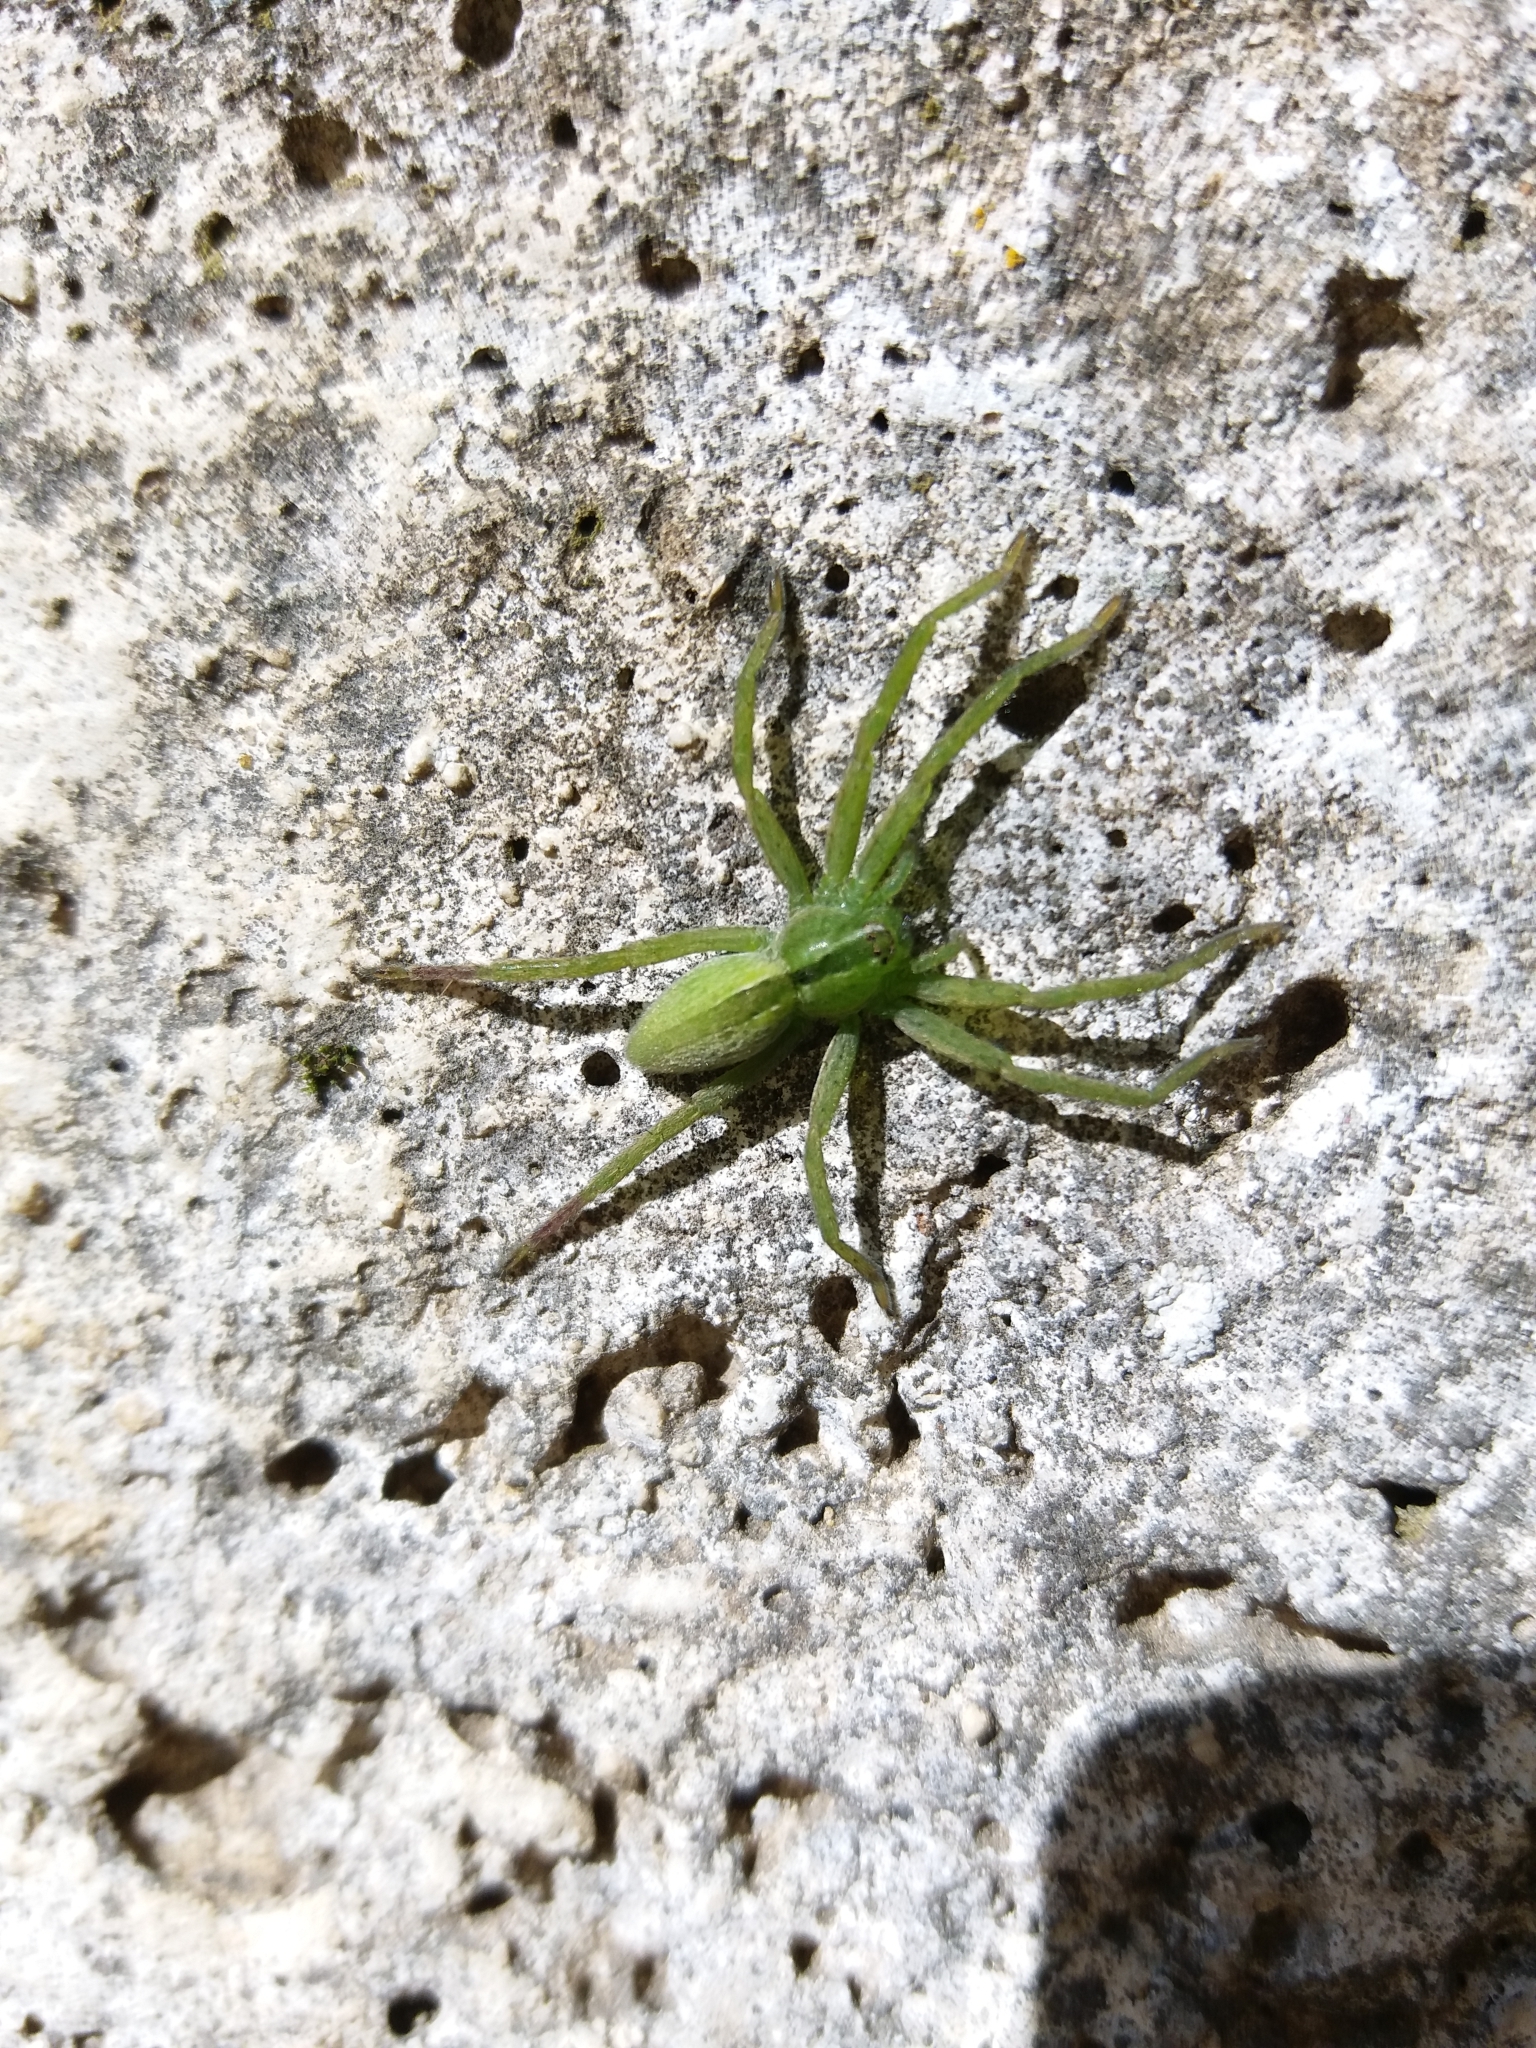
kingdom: Animalia
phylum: Arthropoda
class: Arachnida
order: Araneae
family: Sparassidae
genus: Micrommata
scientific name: Micrommata virescens
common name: Green spider
